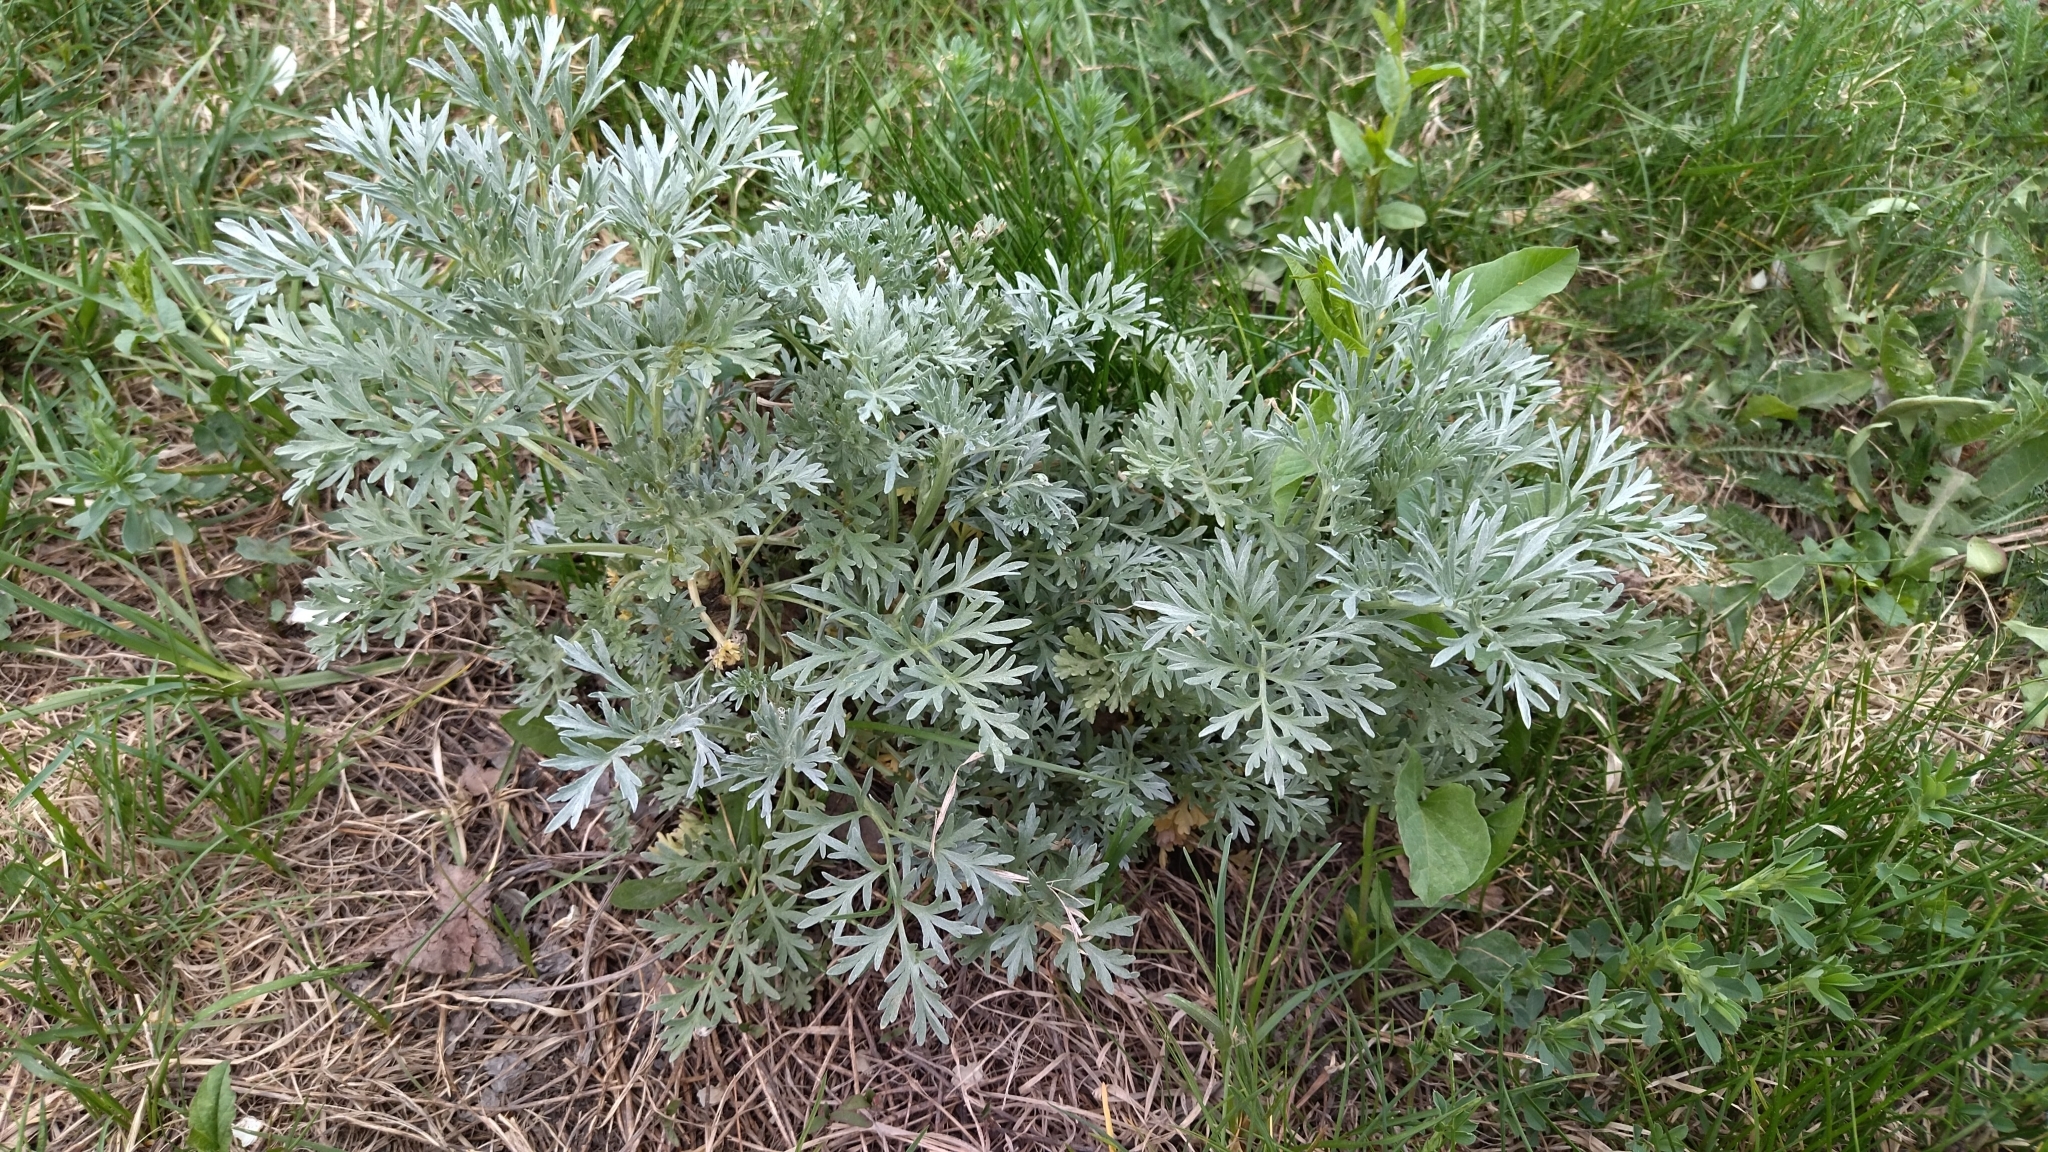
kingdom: Plantae
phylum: Tracheophyta
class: Magnoliopsida
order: Asterales
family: Asteraceae
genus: Artemisia
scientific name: Artemisia absinthium
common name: Wormwood
